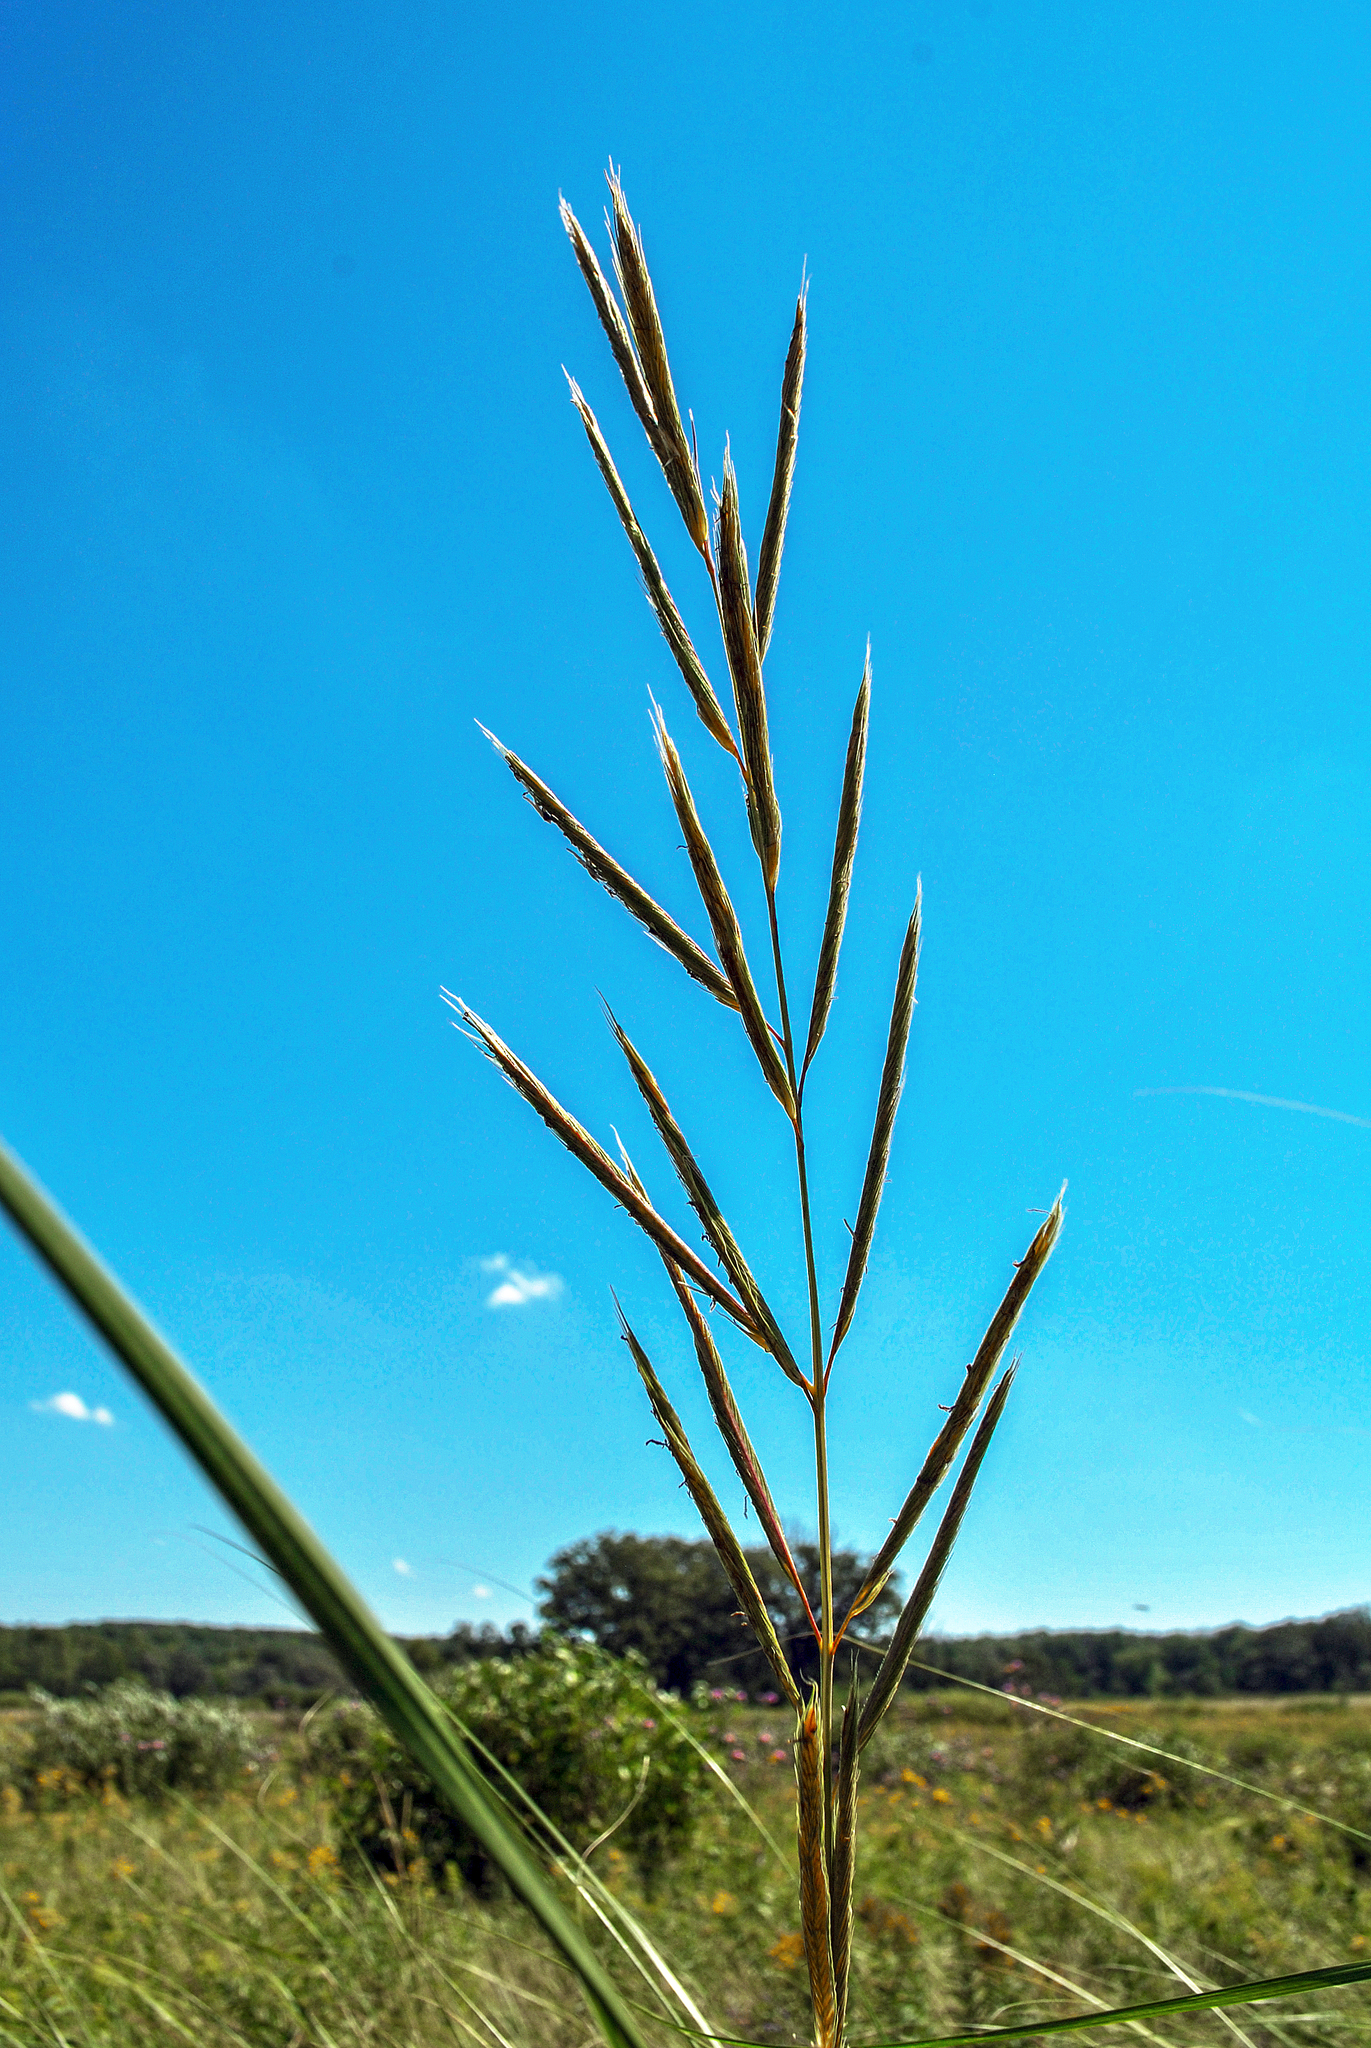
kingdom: Plantae
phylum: Tracheophyta
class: Liliopsida
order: Poales
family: Poaceae
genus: Sporobolus
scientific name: Sporobolus michauxianus
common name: Freshwater cordgrass
